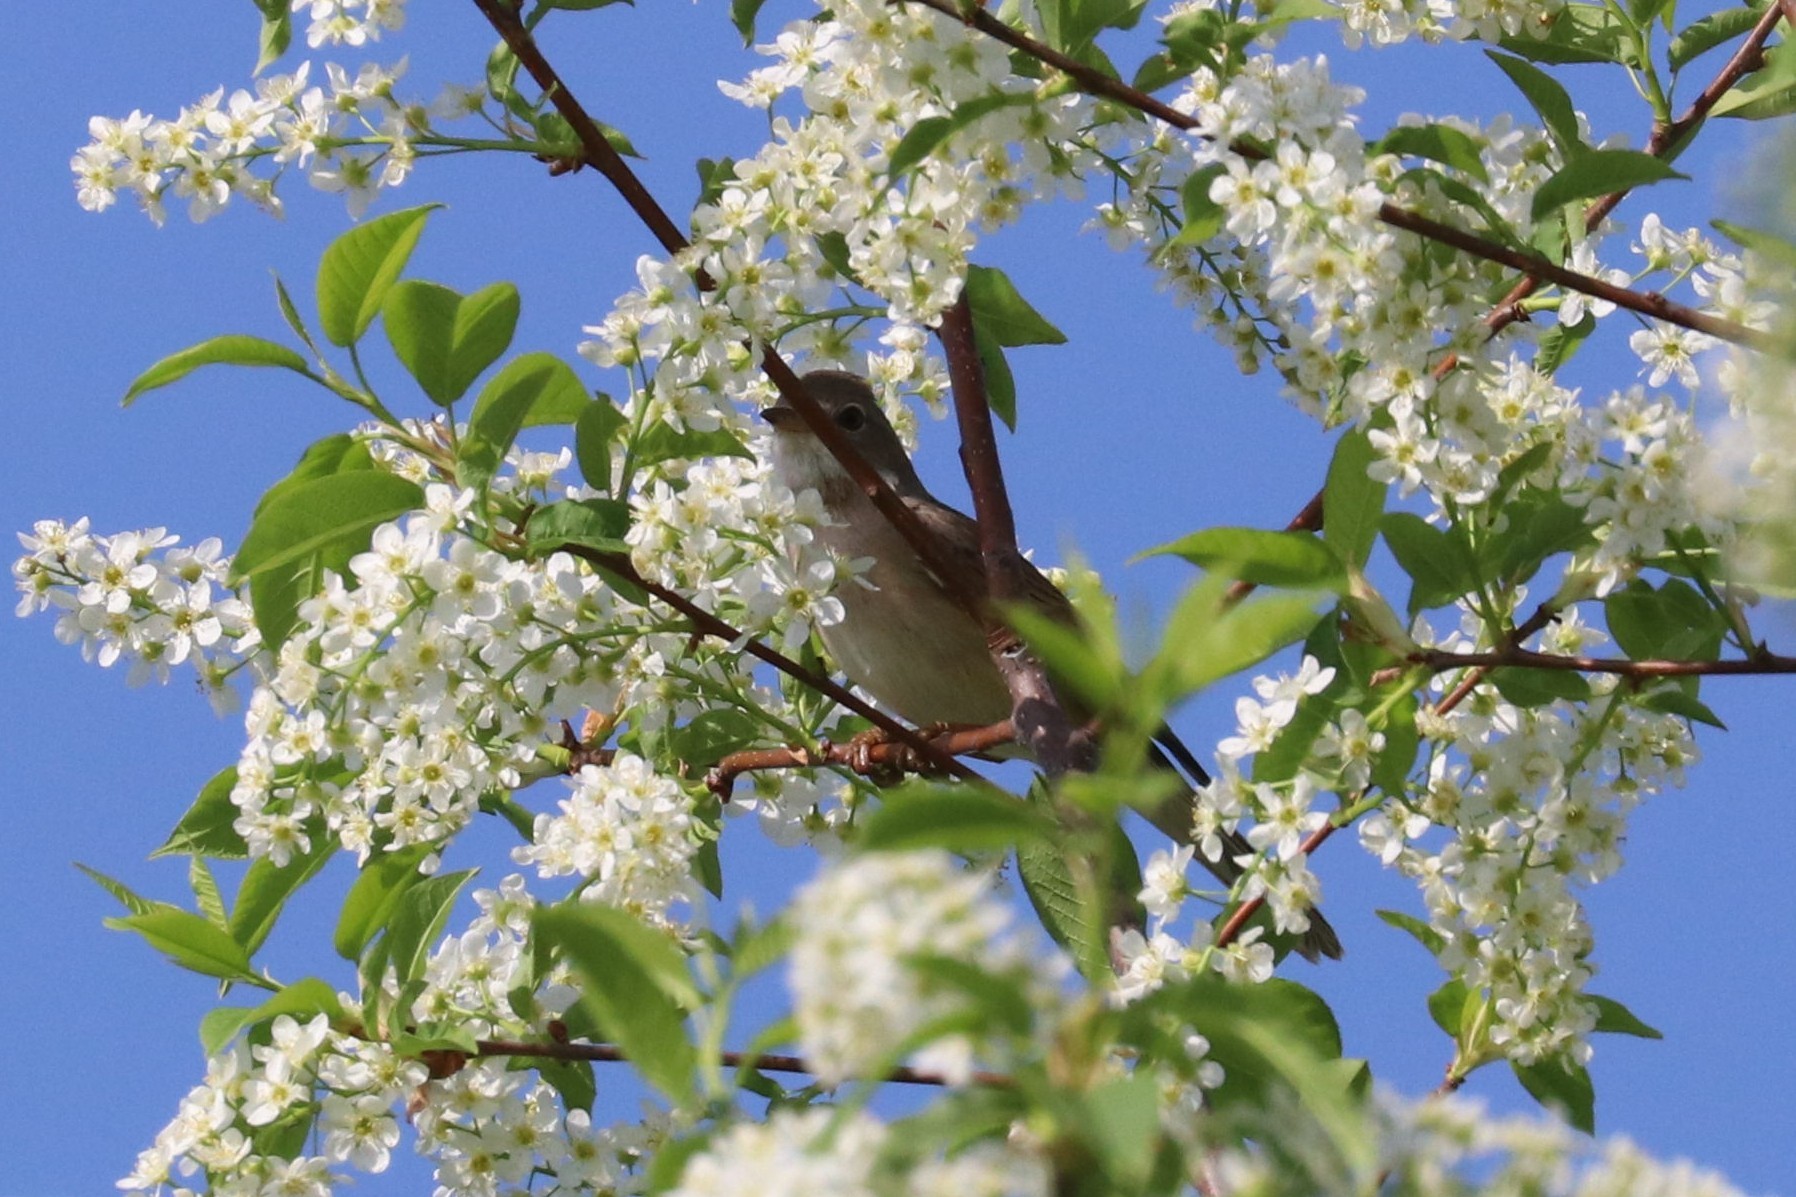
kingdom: Animalia
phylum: Chordata
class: Aves
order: Passeriformes
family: Sylviidae
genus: Sylvia
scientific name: Sylvia communis
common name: Common whitethroat
